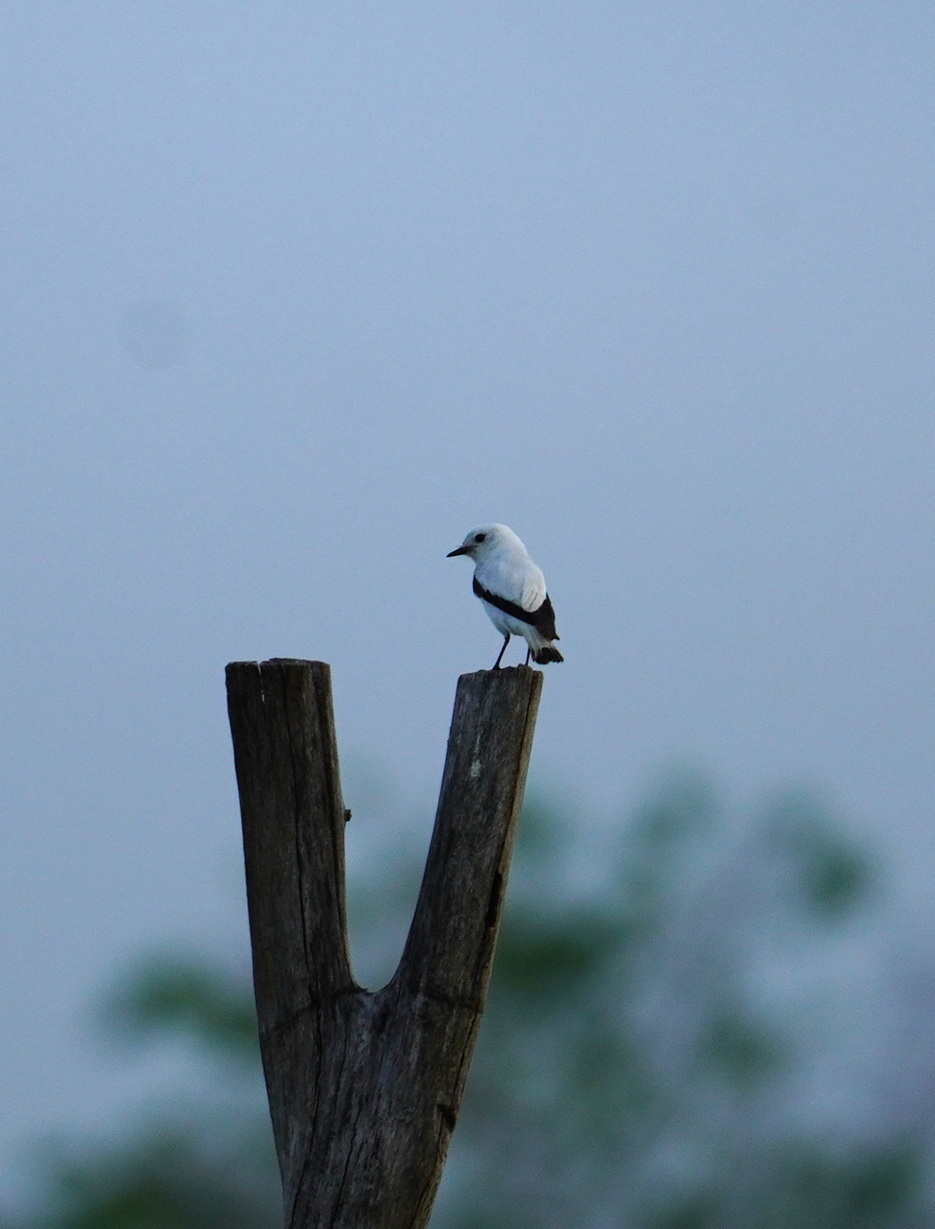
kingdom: Animalia
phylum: Chordata
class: Aves
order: Passeriformes
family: Tyrannidae
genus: Xolmis
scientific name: Xolmis irupero
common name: White monjita
